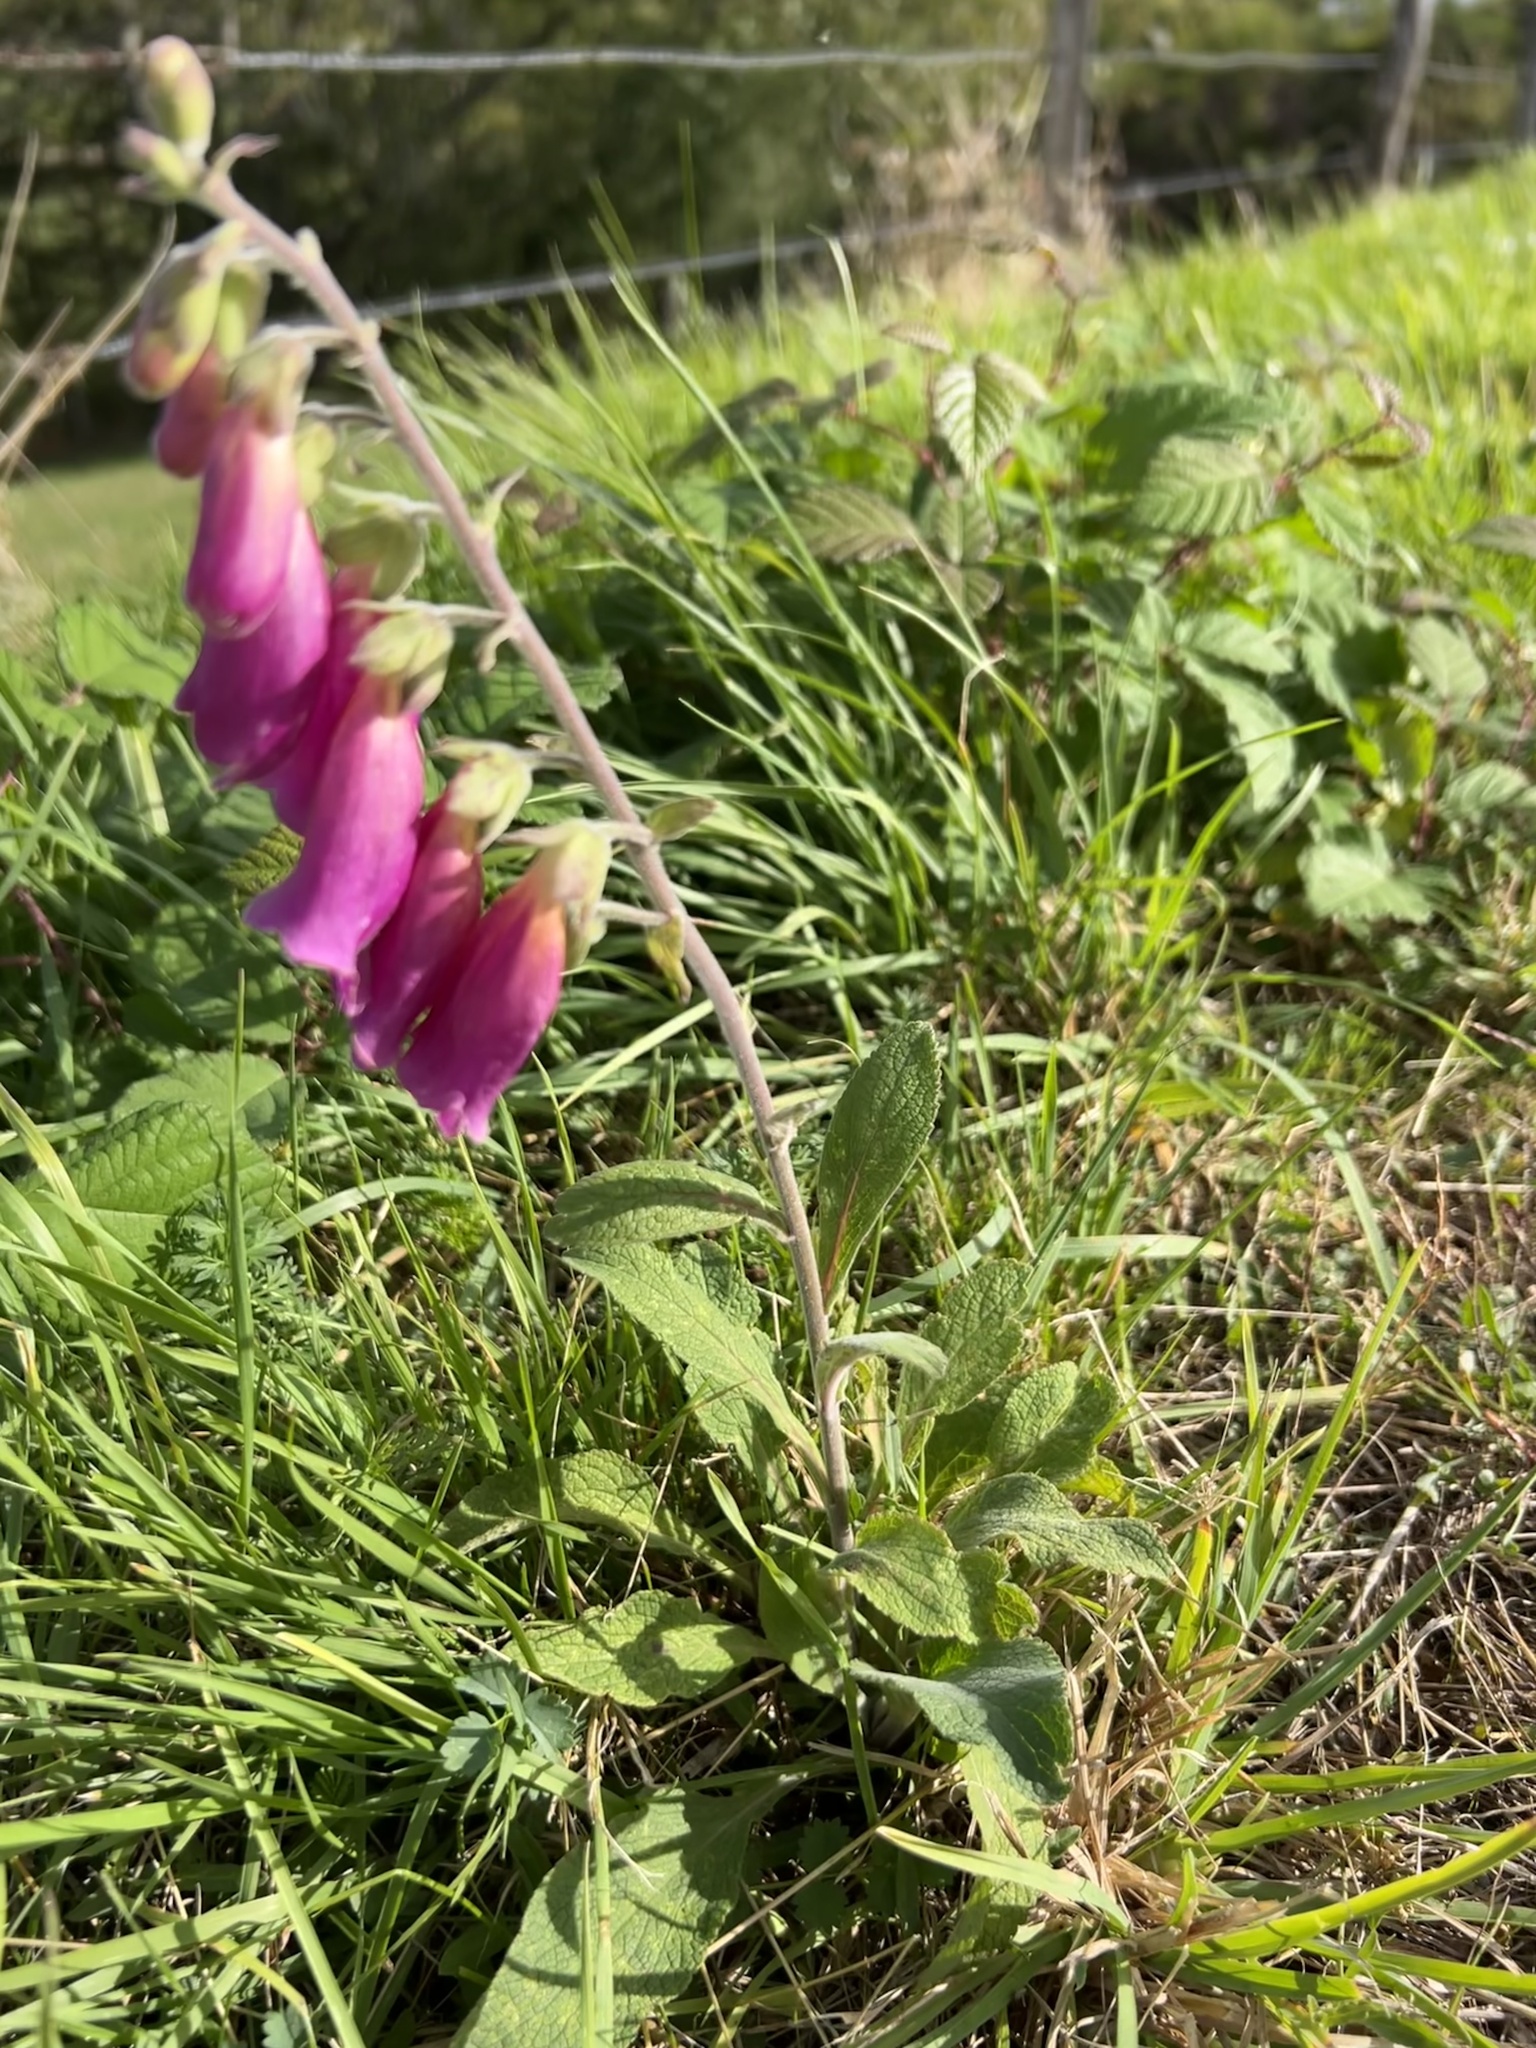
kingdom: Plantae
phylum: Tracheophyta
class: Magnoliopsida
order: Lamiales
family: Plantaginaceae
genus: Digitalis
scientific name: Digitalis purpurea
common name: Foxglove
